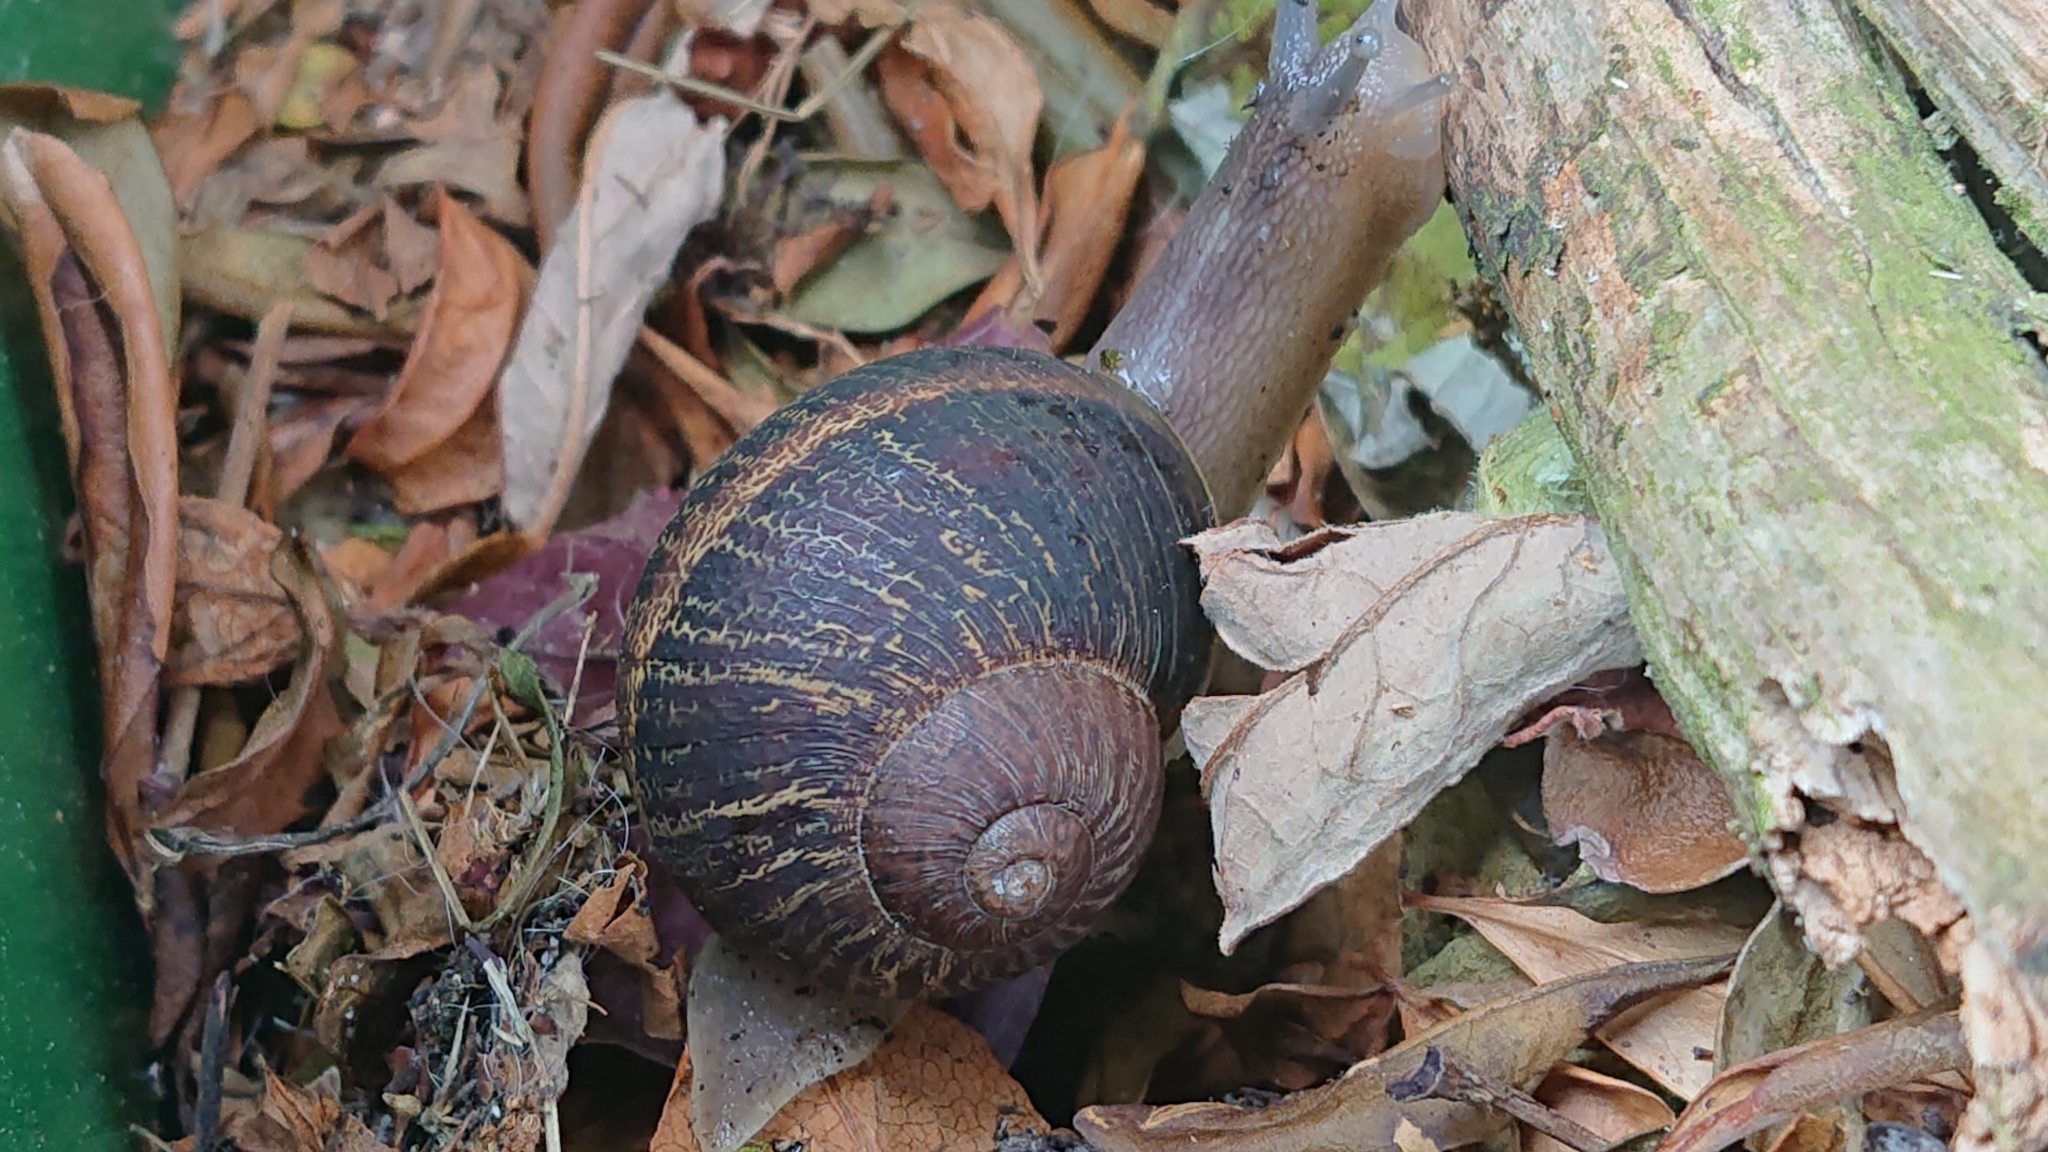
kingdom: Animalia
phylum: Mollusca
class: Gastropoda
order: Stylommatophora
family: Helicidae
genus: Cornu
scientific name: Cornu aspersum
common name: Brown garden snail
